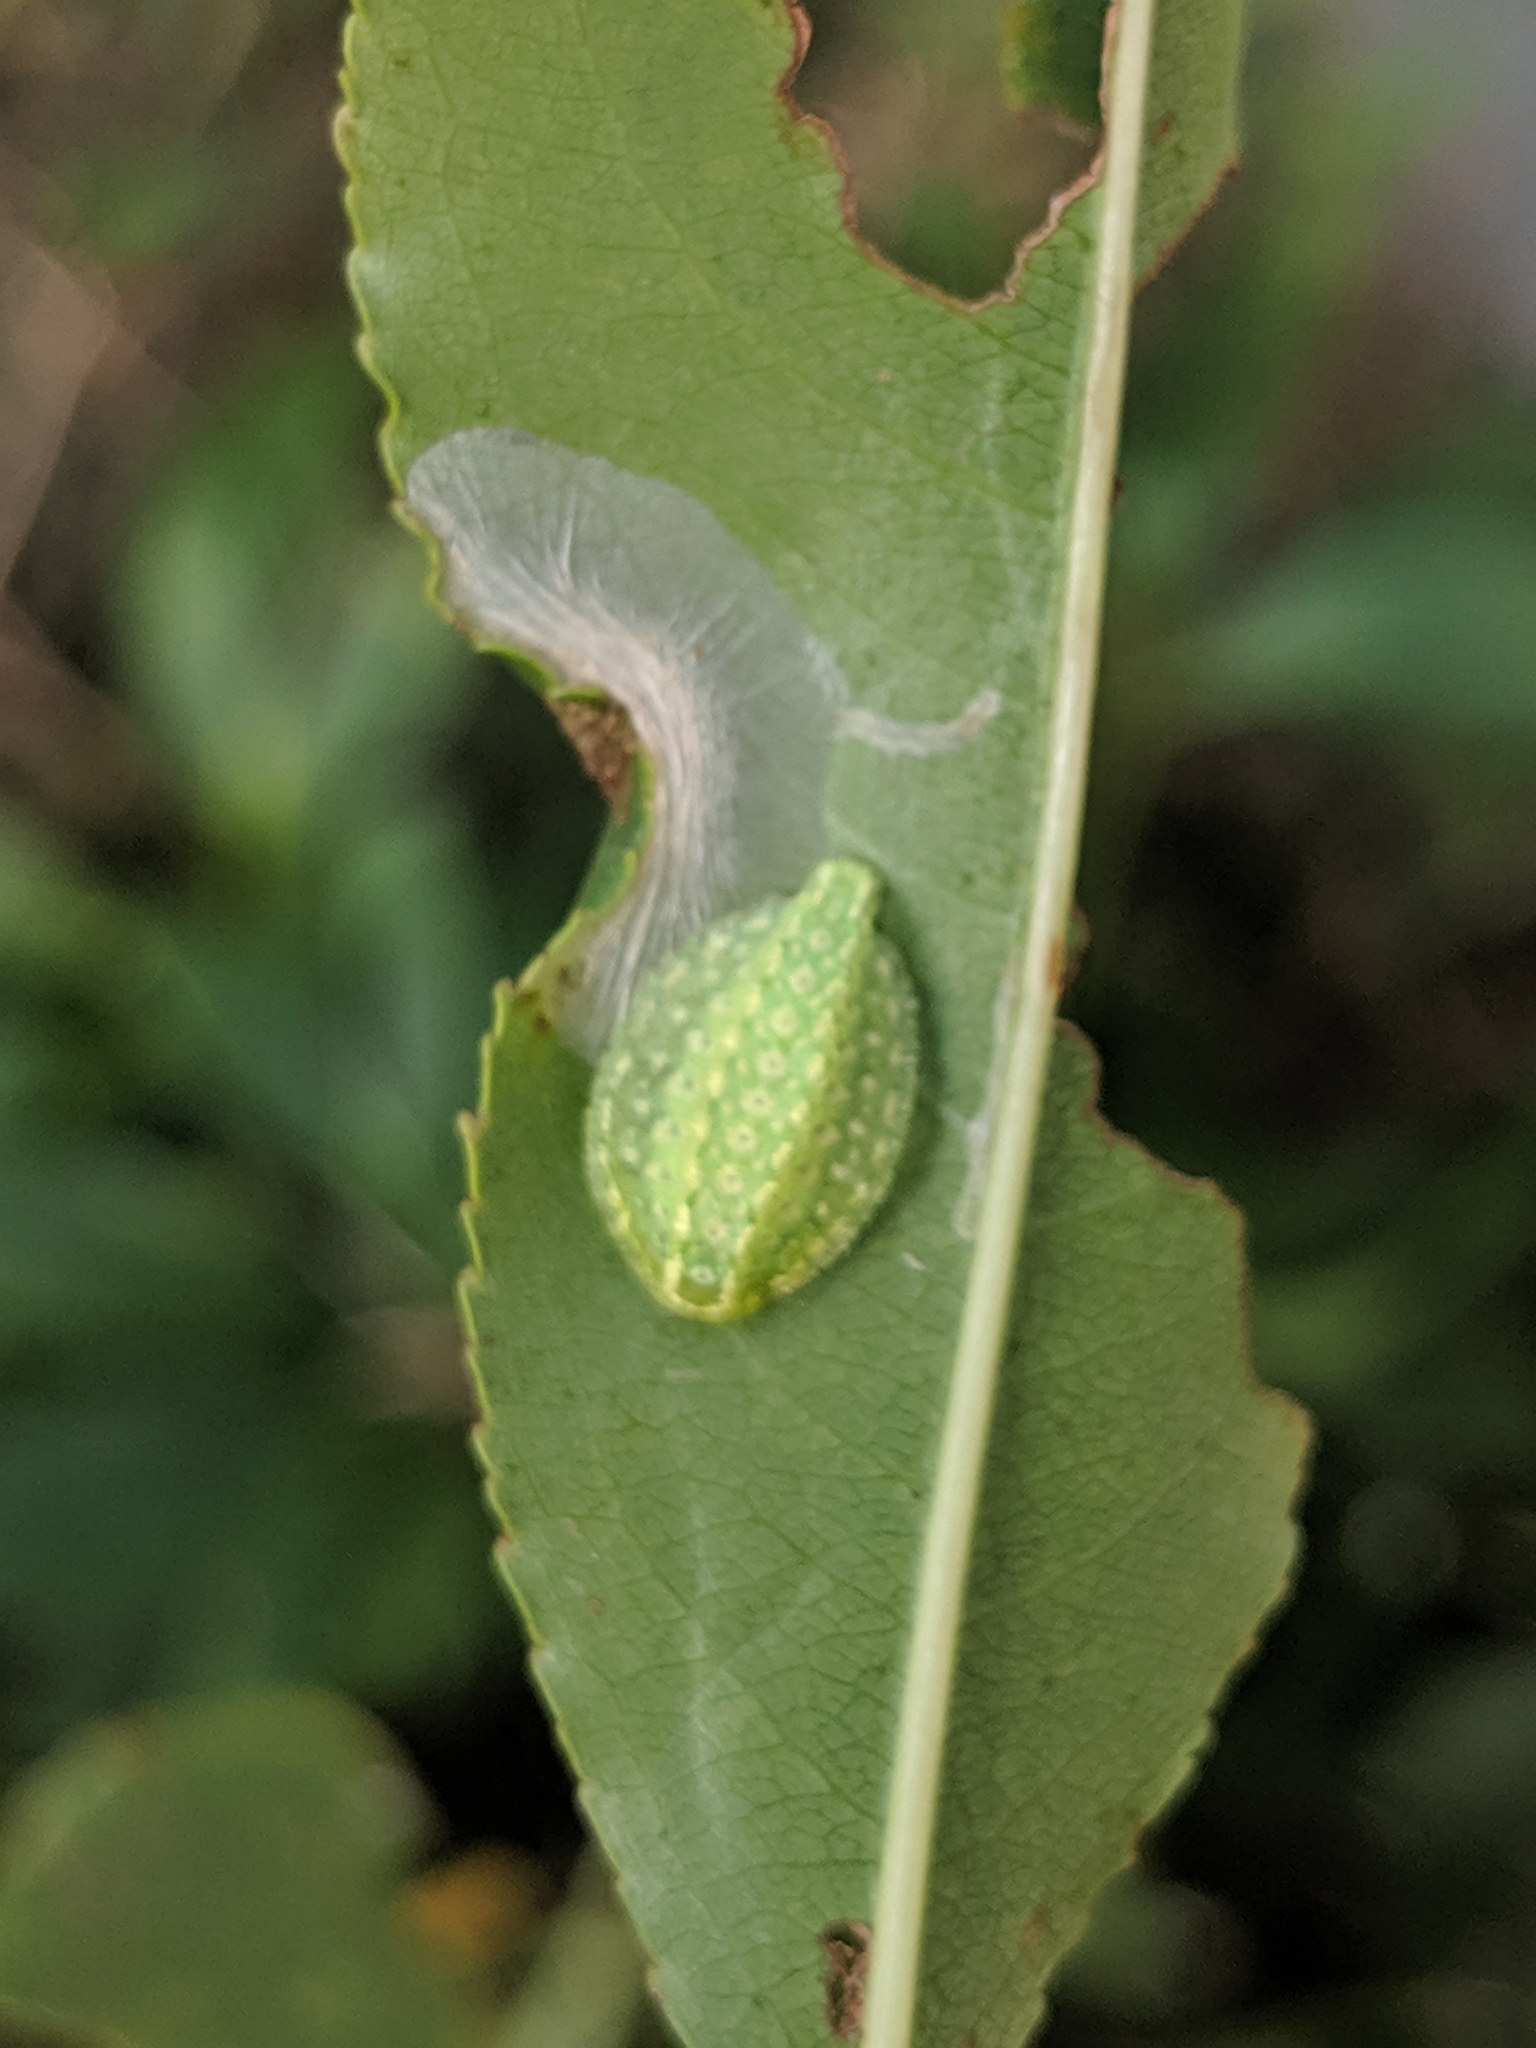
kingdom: Animalia
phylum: Arthropoda
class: Insecta
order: Lepidoptera
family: Limacodidae
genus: Lithacodes
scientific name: Lithacodes fasciola
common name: Yellow-shouldered slug moth
